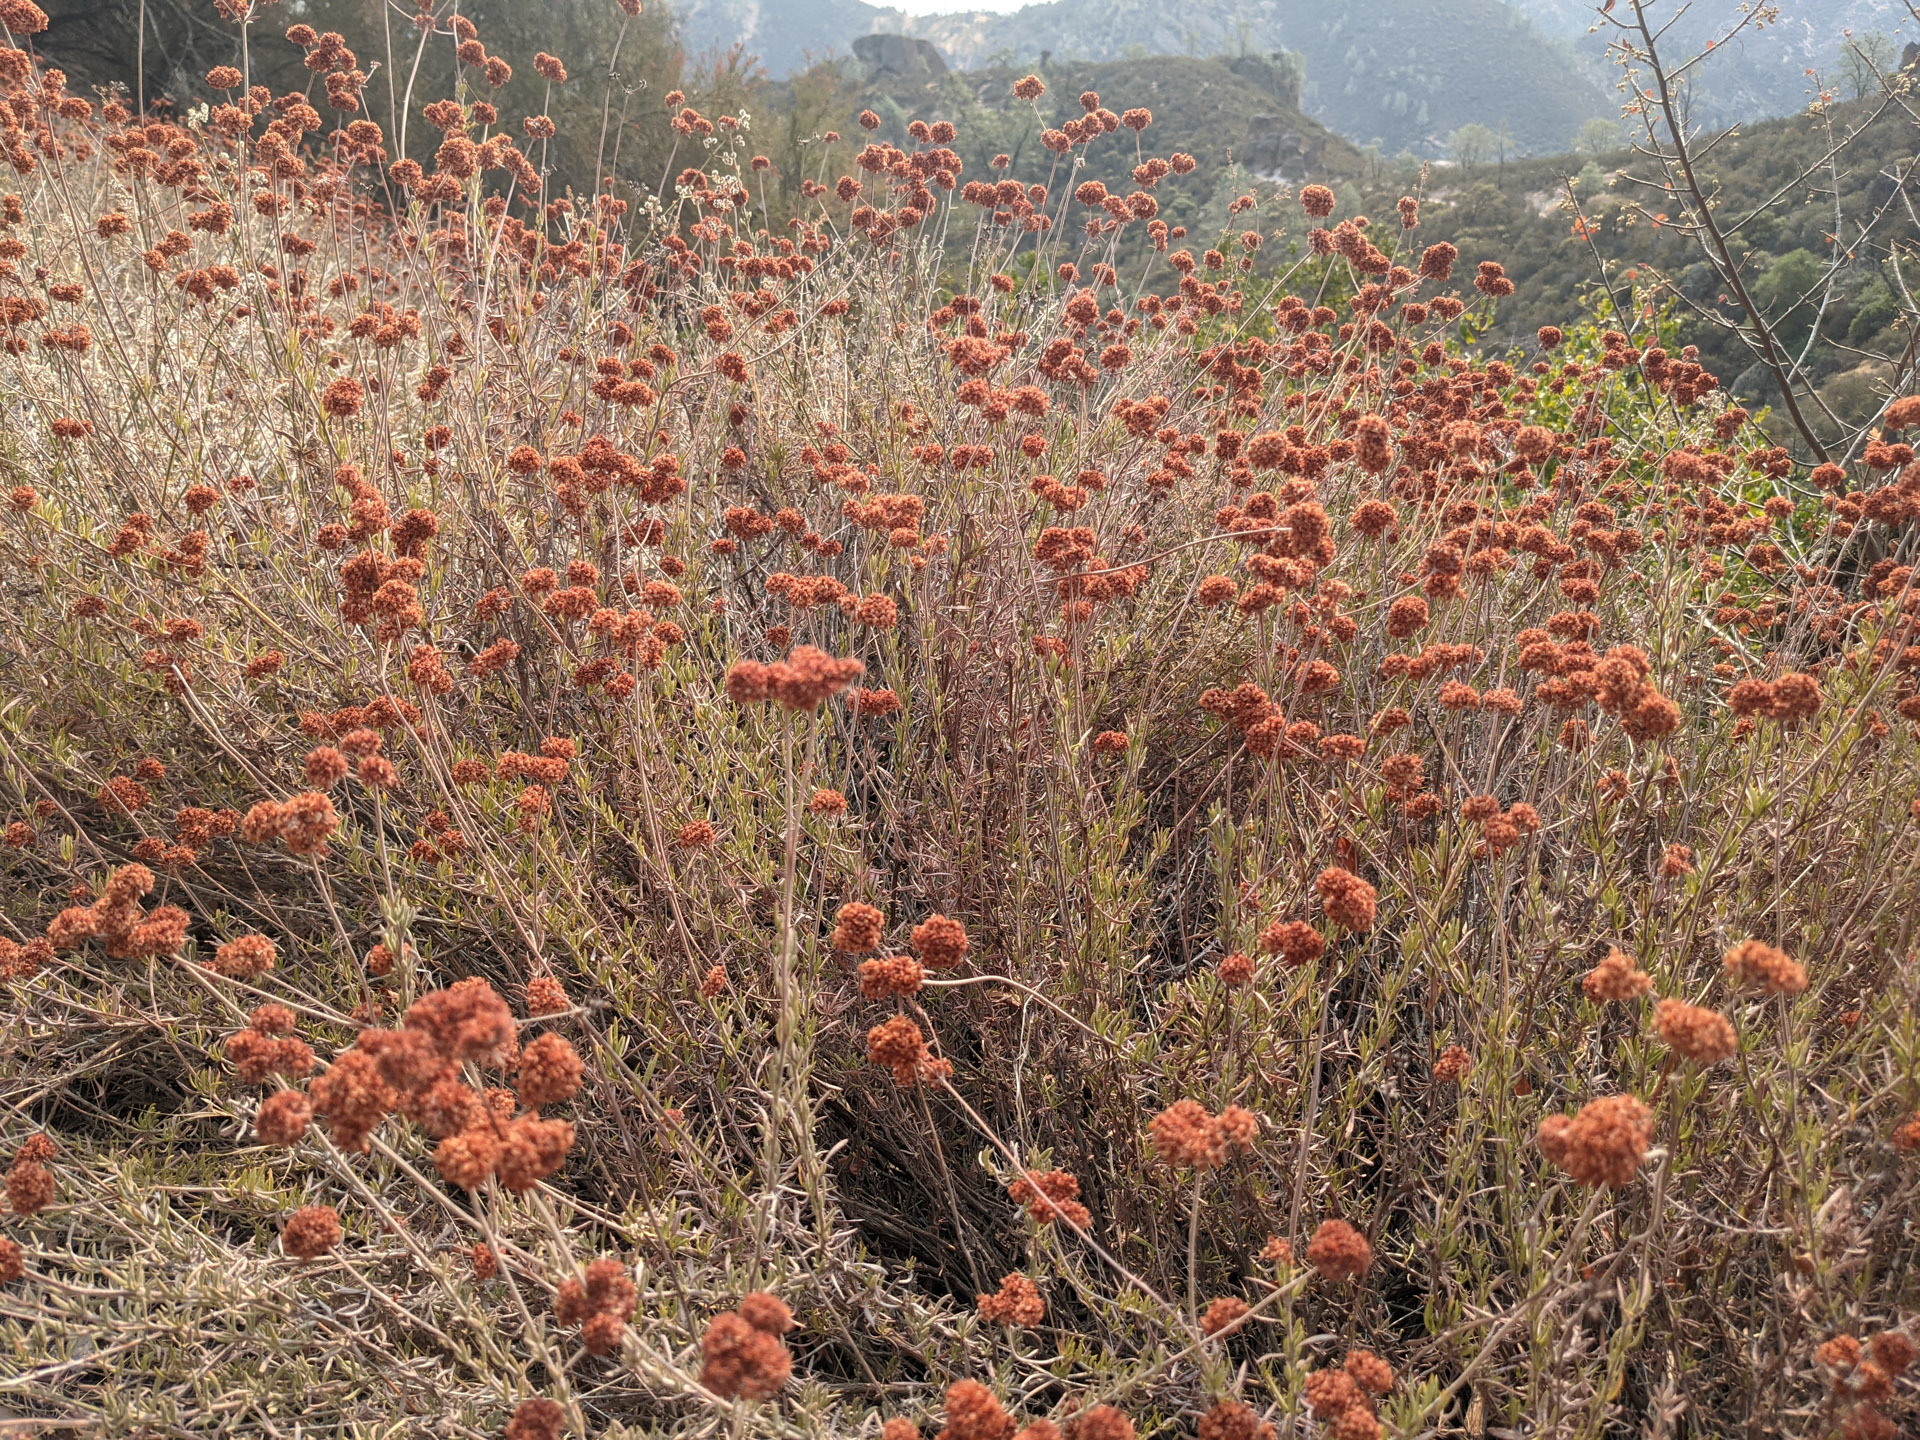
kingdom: Plantae
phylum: Tracheophyta
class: Magnoliopsida
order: Caryophyllales
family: Polygonaceae
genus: Eriogonum
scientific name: Eriogonum fasciculatum
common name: California wild buckwheat
